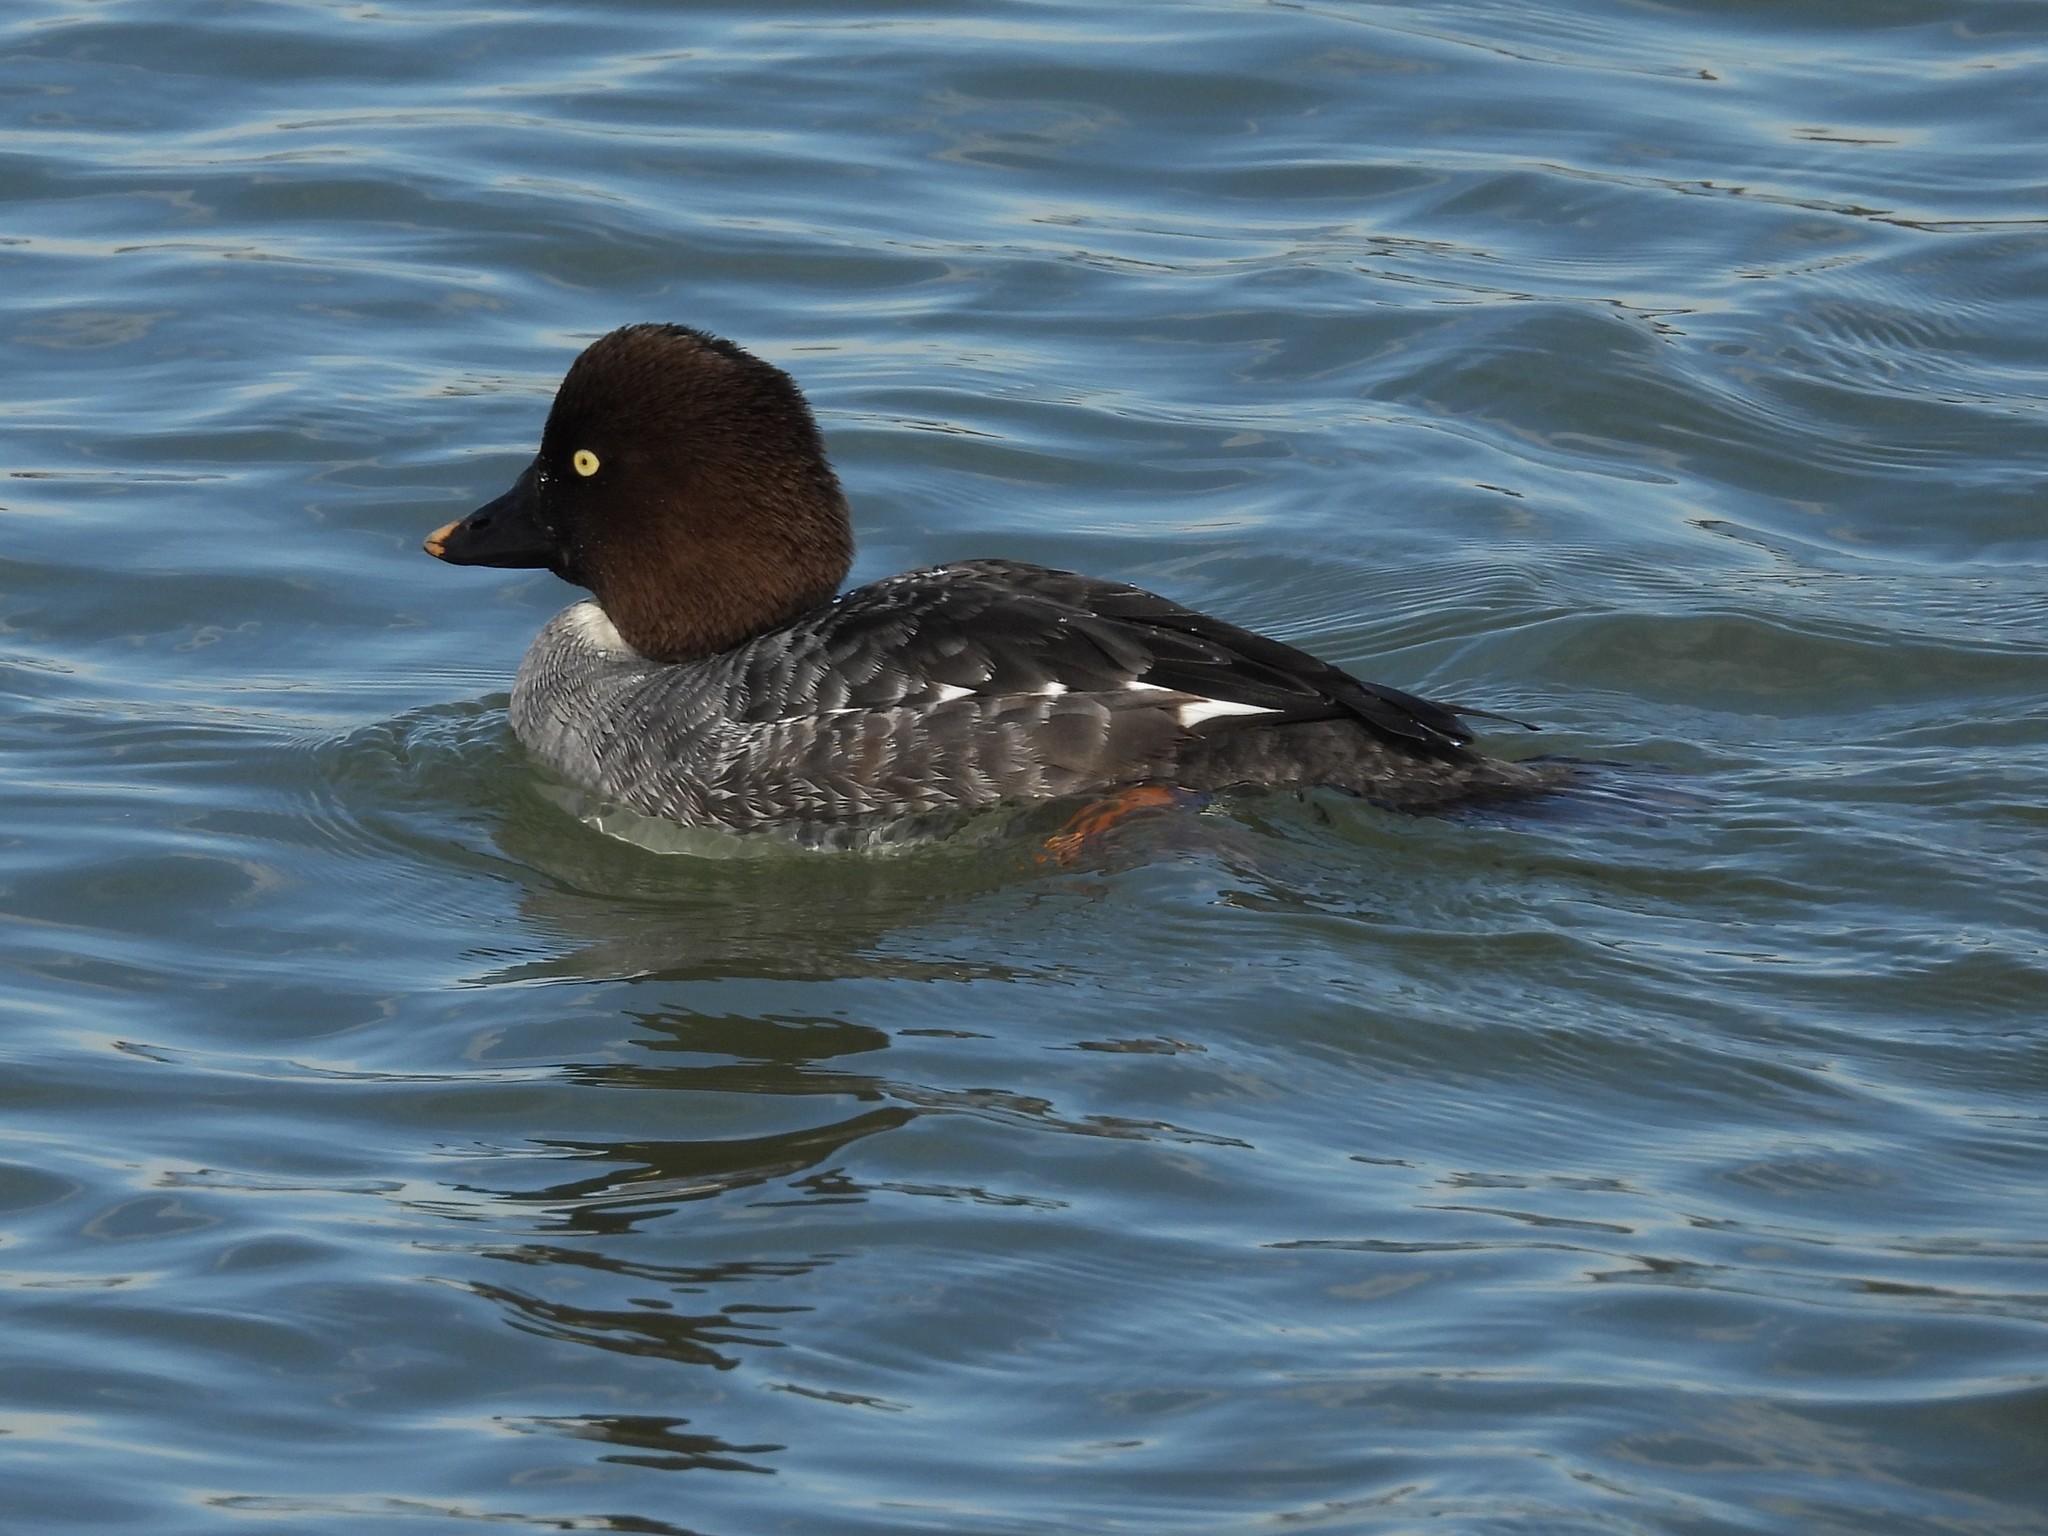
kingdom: Animalia
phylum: Chordata
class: Aves
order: Anseriformes
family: Anatidae
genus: Bucephala
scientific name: Bucephala clangula
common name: Common goldeneye
